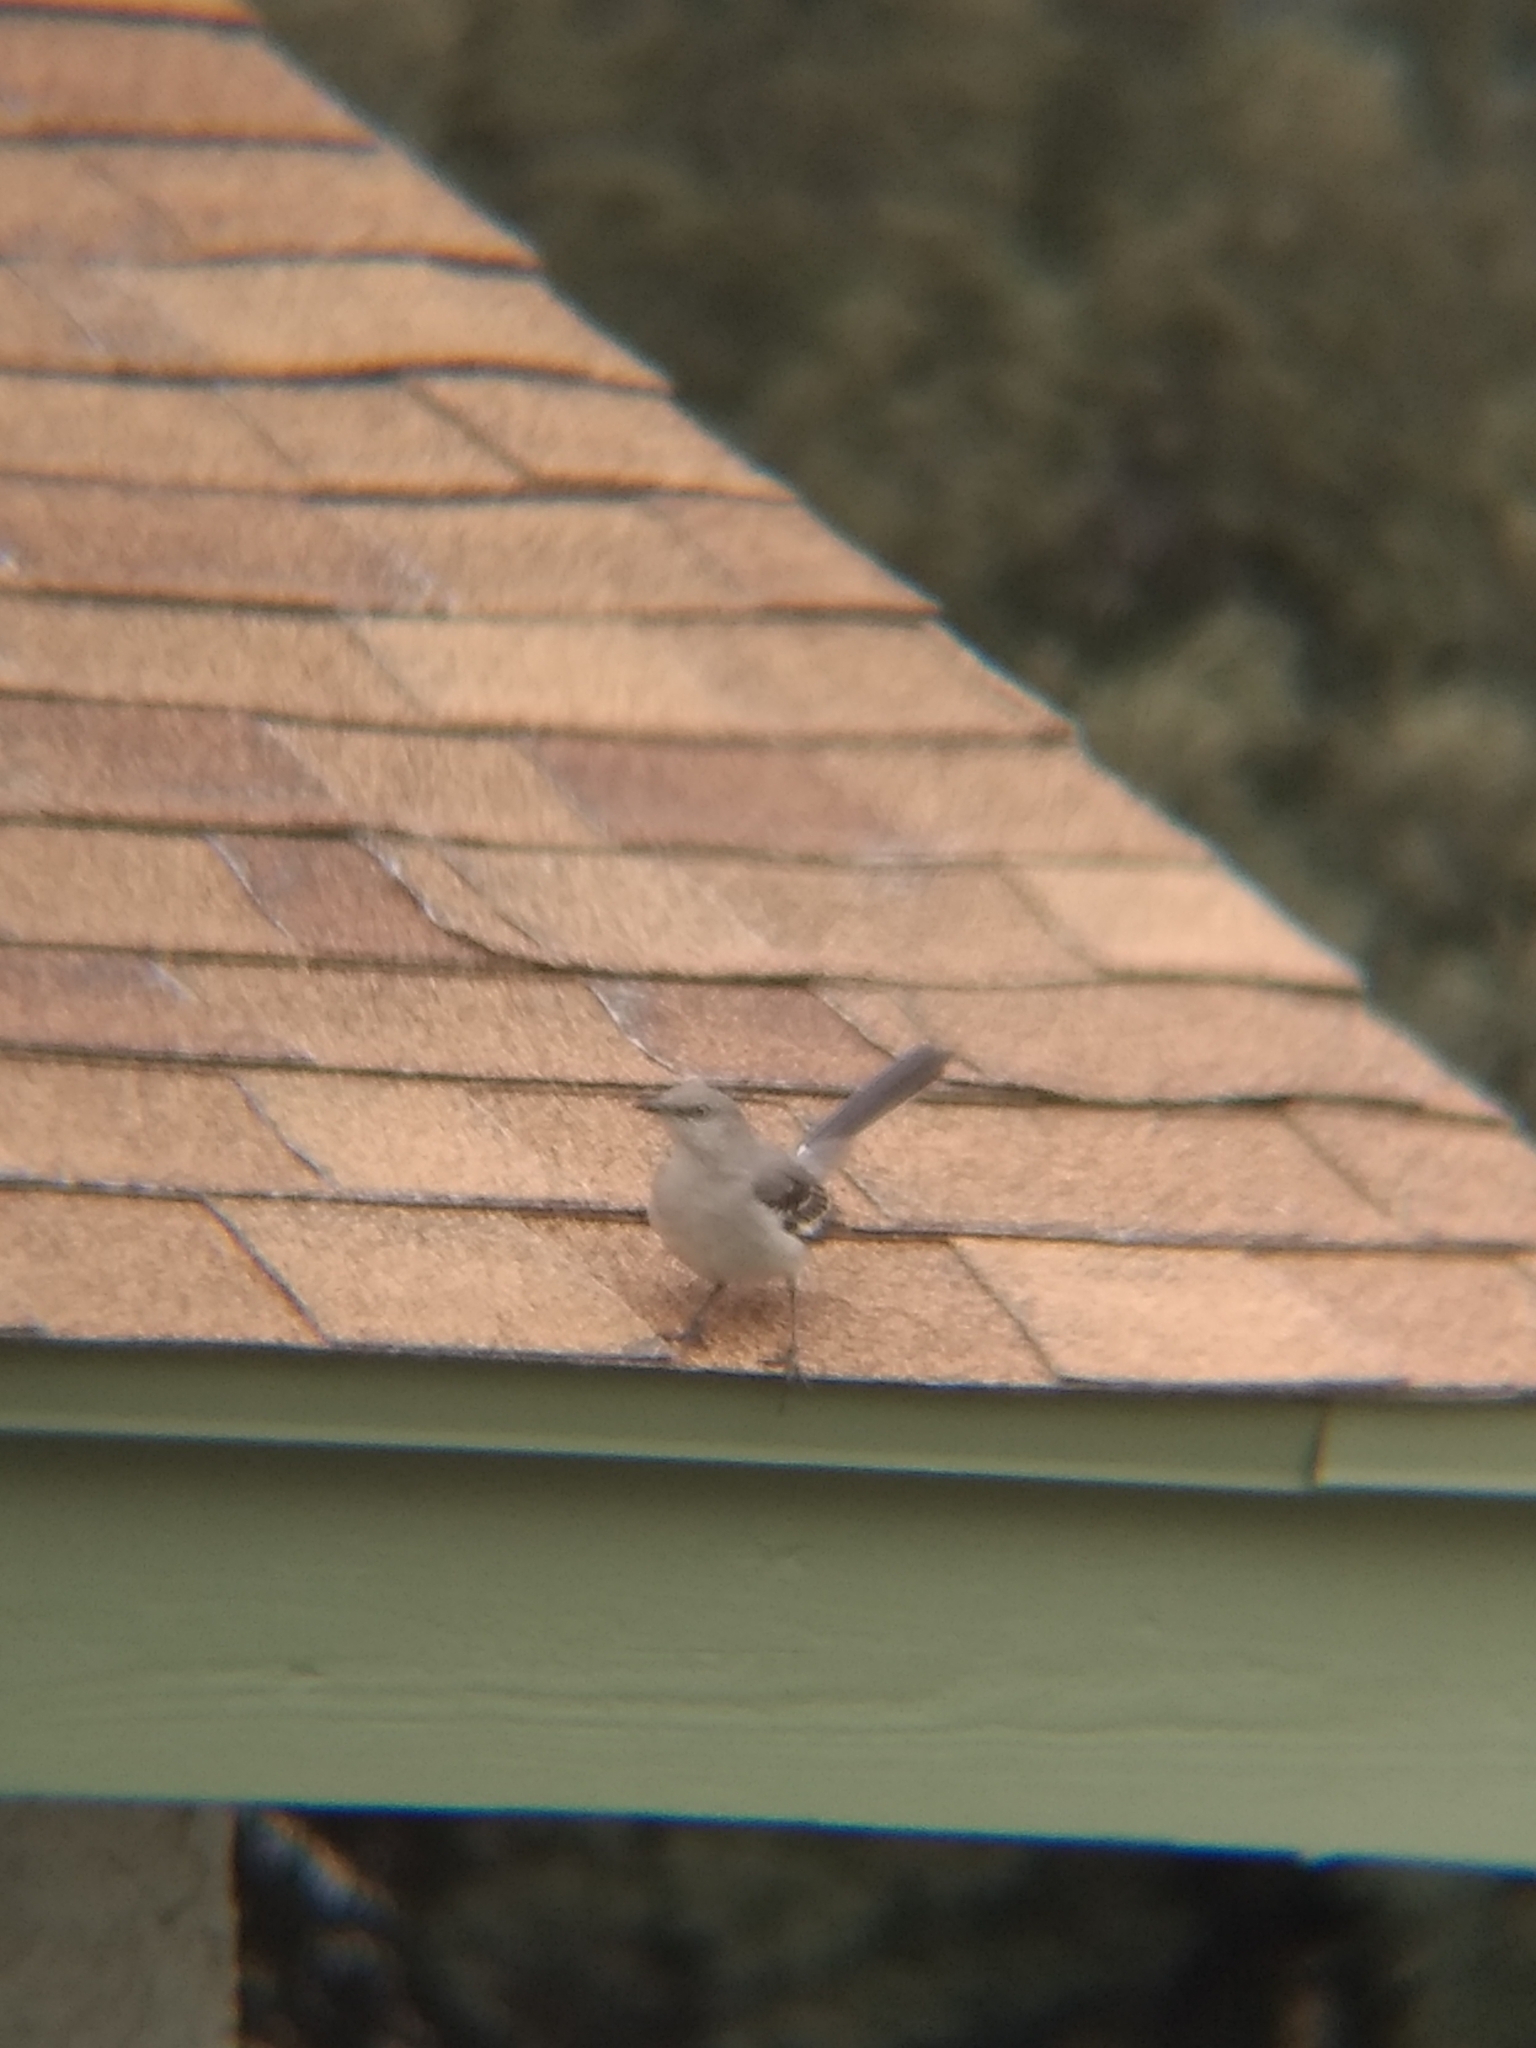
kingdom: Animalia
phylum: Chordata
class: Aves
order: Passeriformes
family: Mimidae
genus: Mimus
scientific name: Mimus polyglottos
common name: Northern mockingbird
